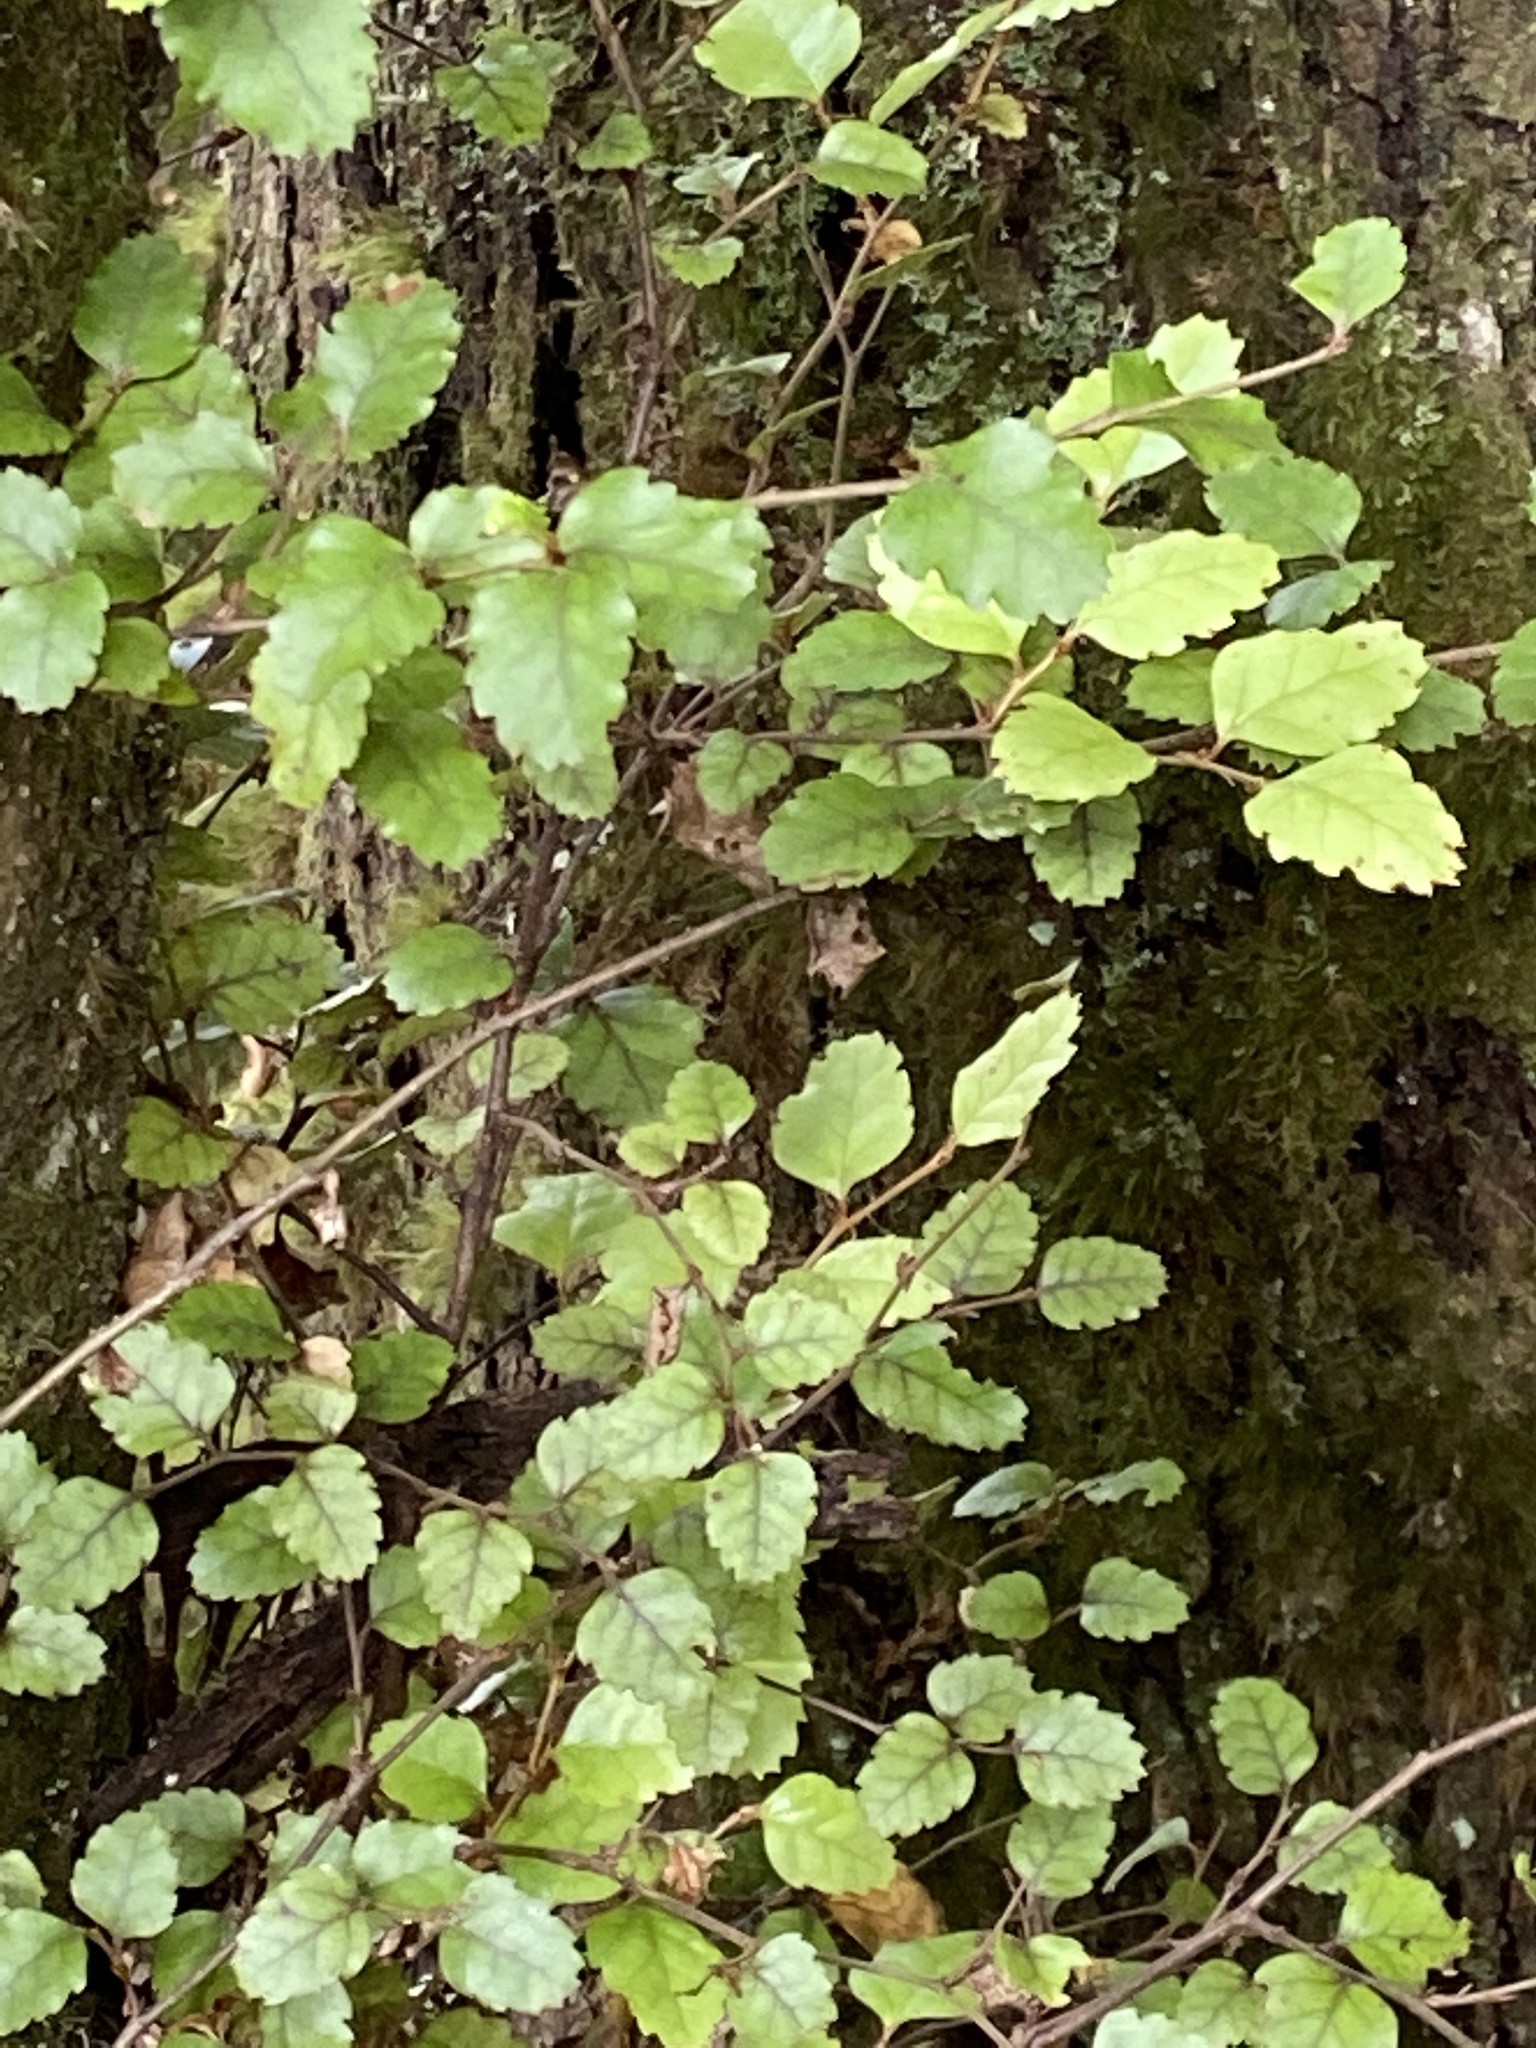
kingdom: Plantae
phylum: Tracheophyta
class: Magnoliopsida
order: Fagales
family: Nothofagaceae
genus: Nothofagus
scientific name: Nothofagus fusca
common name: Red beech
